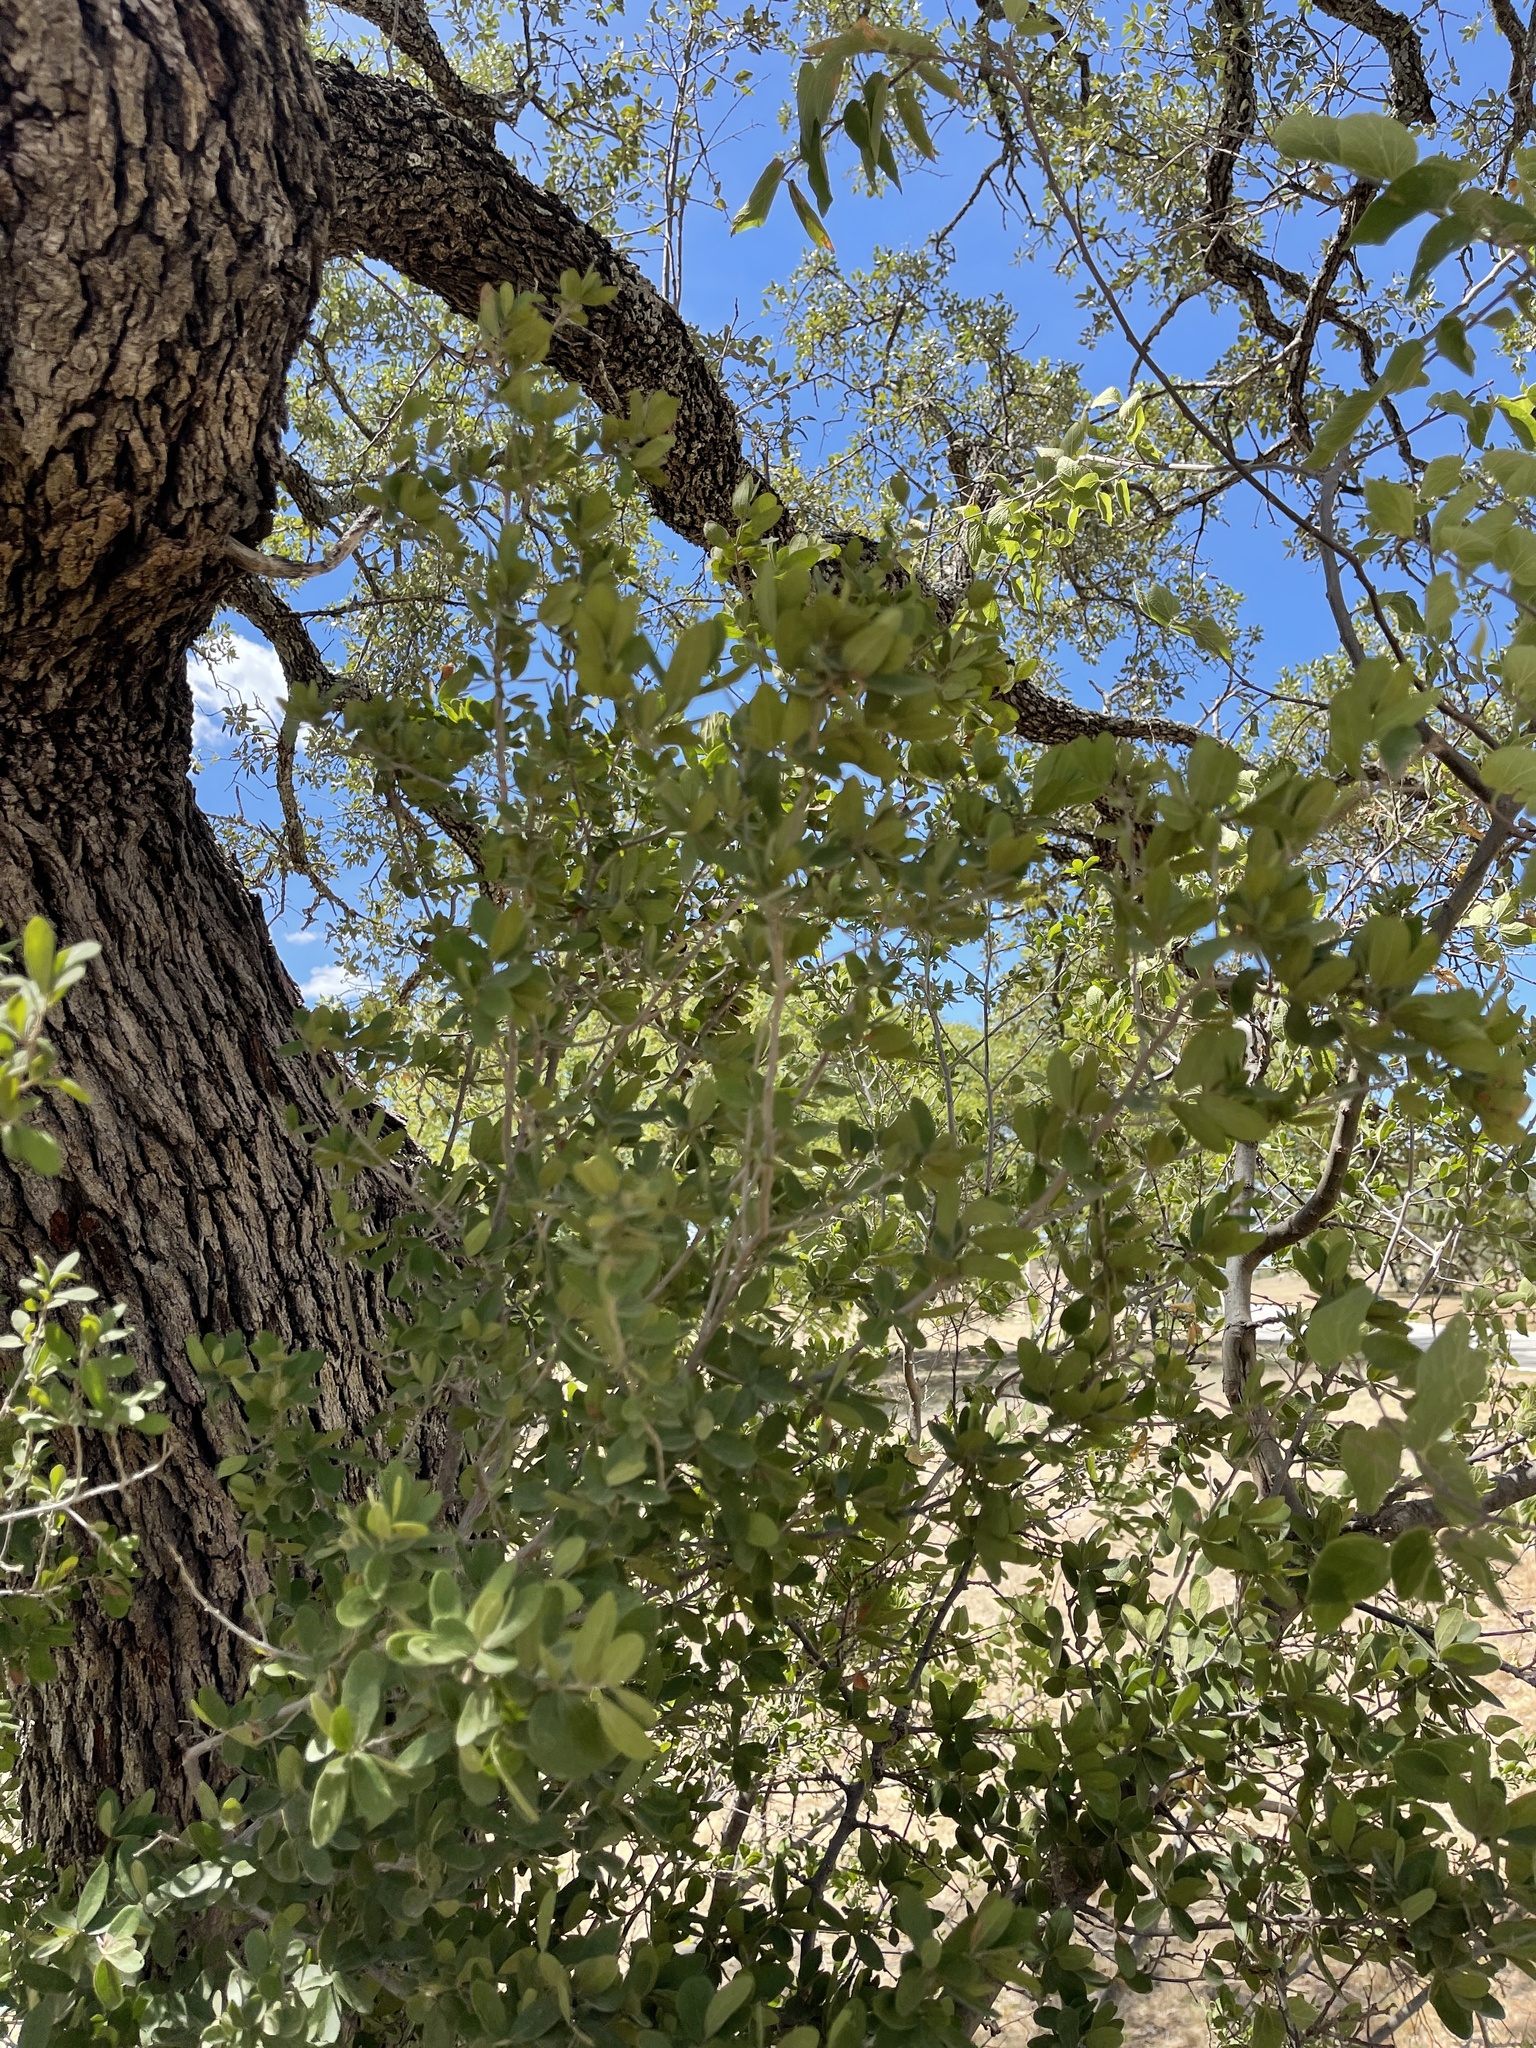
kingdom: Plantae
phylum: Tracheophyta
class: Magnoliopsida
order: Ericales
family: Ebenaceae
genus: Diospyros
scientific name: Diospyros texana
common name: Texas persimmon
